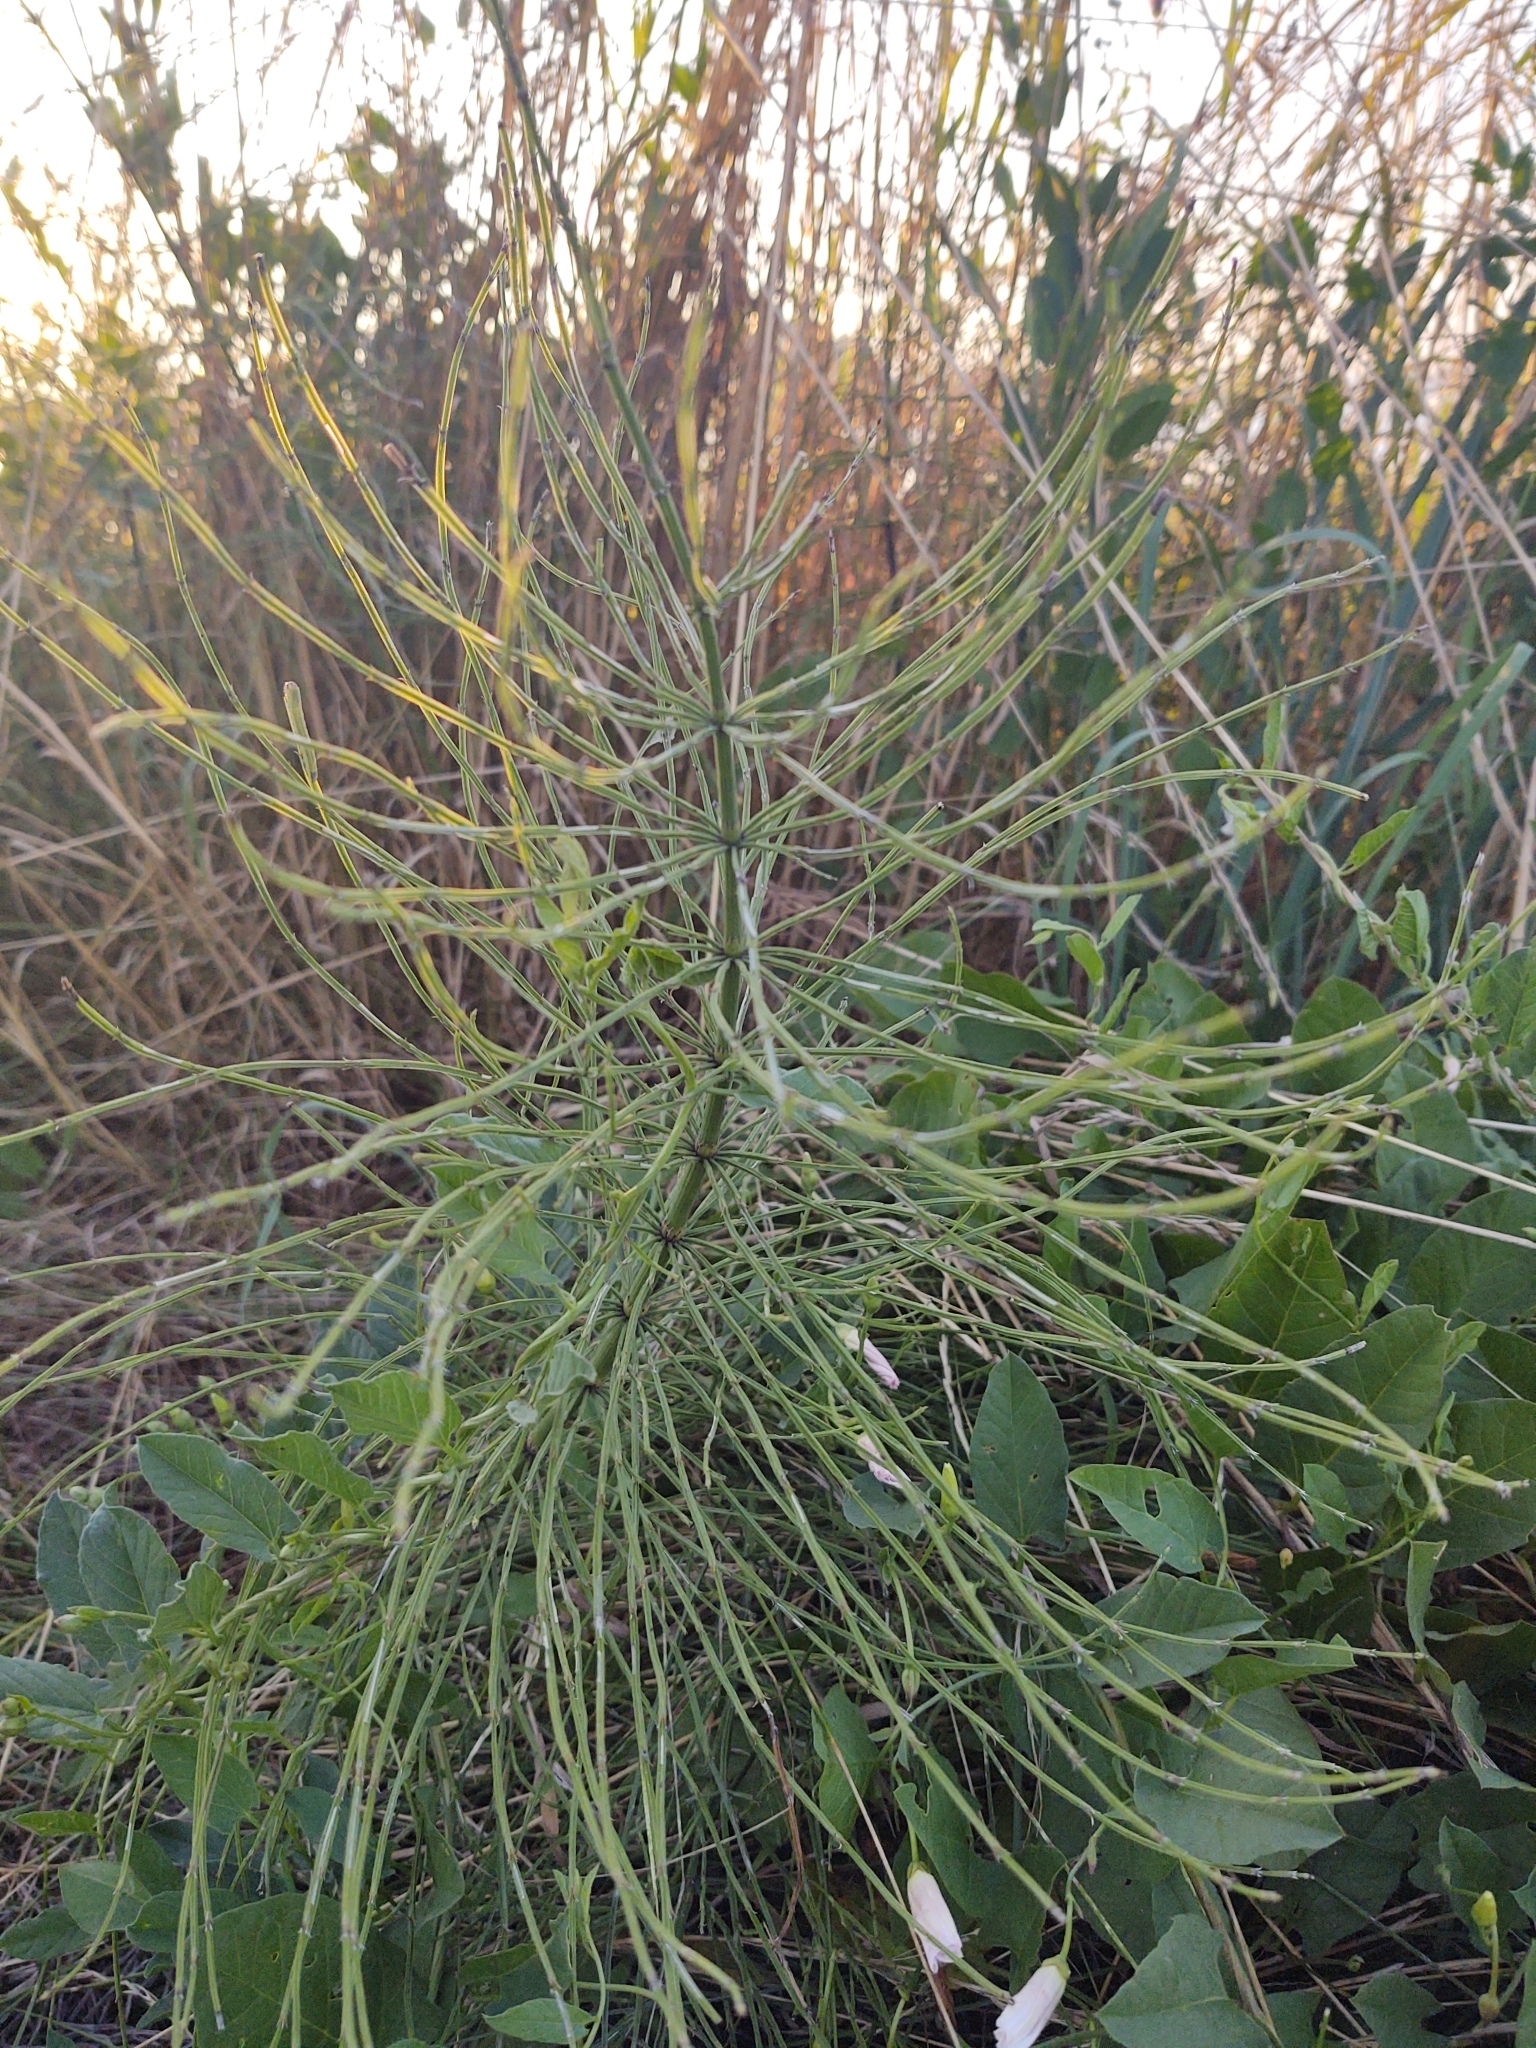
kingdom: Plantae
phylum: Tracheophyta
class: Polypodiopsida
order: Equisetales
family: Equisetaceae
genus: Equisetum
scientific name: Equisetum arvense
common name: Field horsetail
